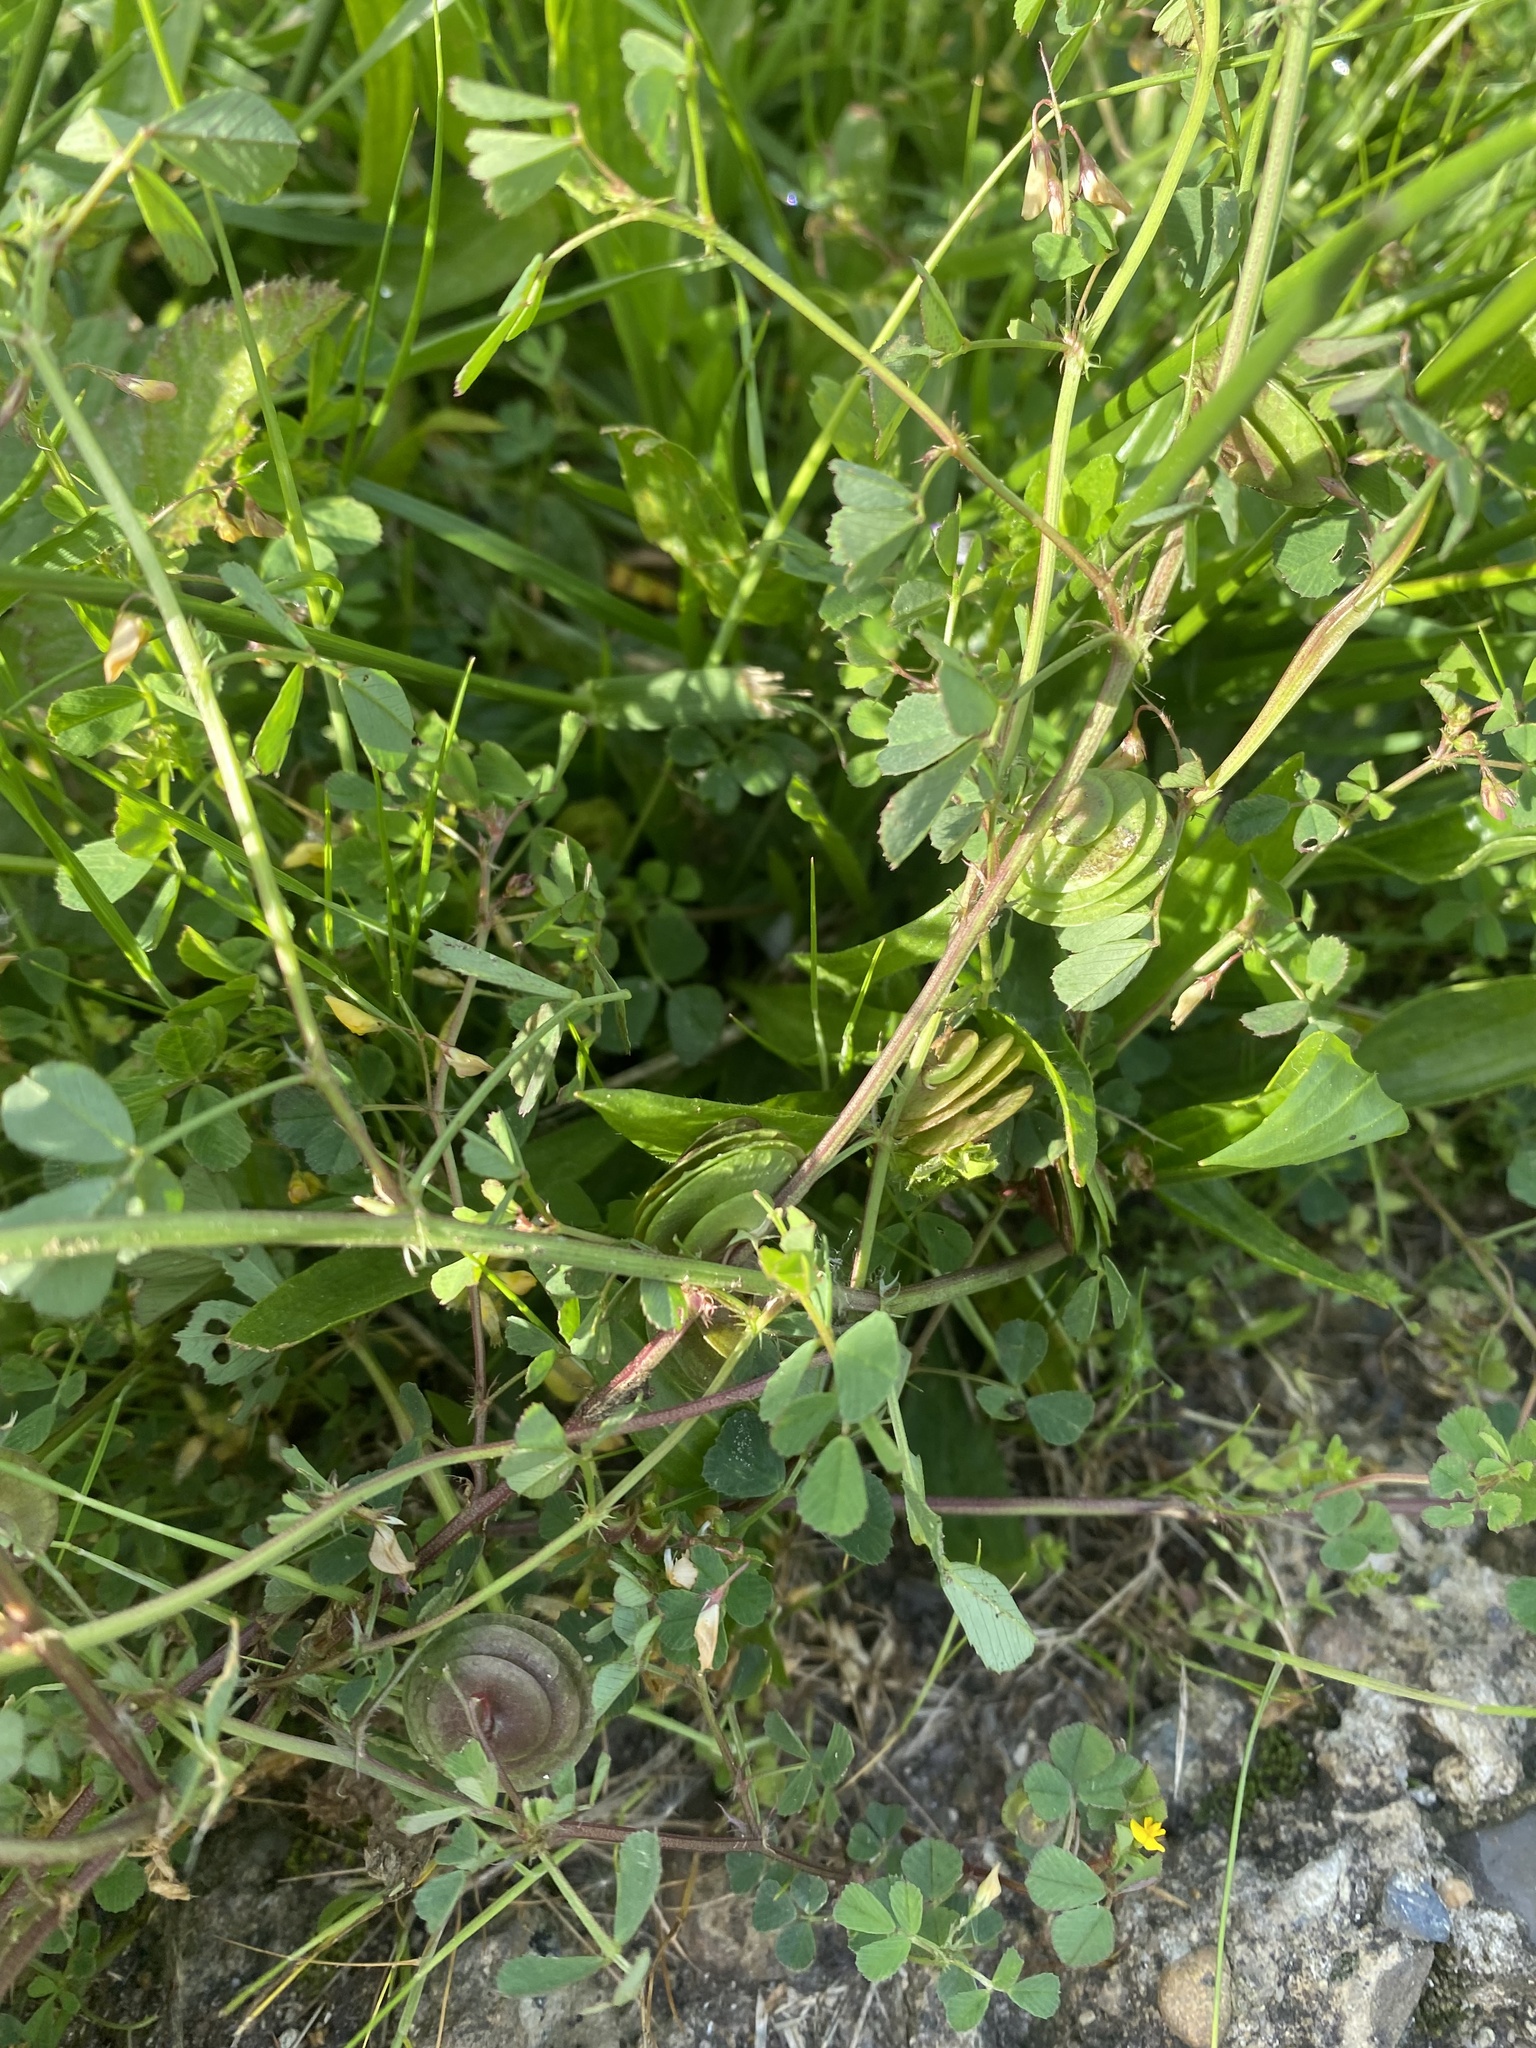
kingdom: Plantae
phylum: Tracheophyta
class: Magnoliopsida
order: Fabales
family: Fabaceae
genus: Medicago
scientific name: Medicago orbicularis
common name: Button medick
